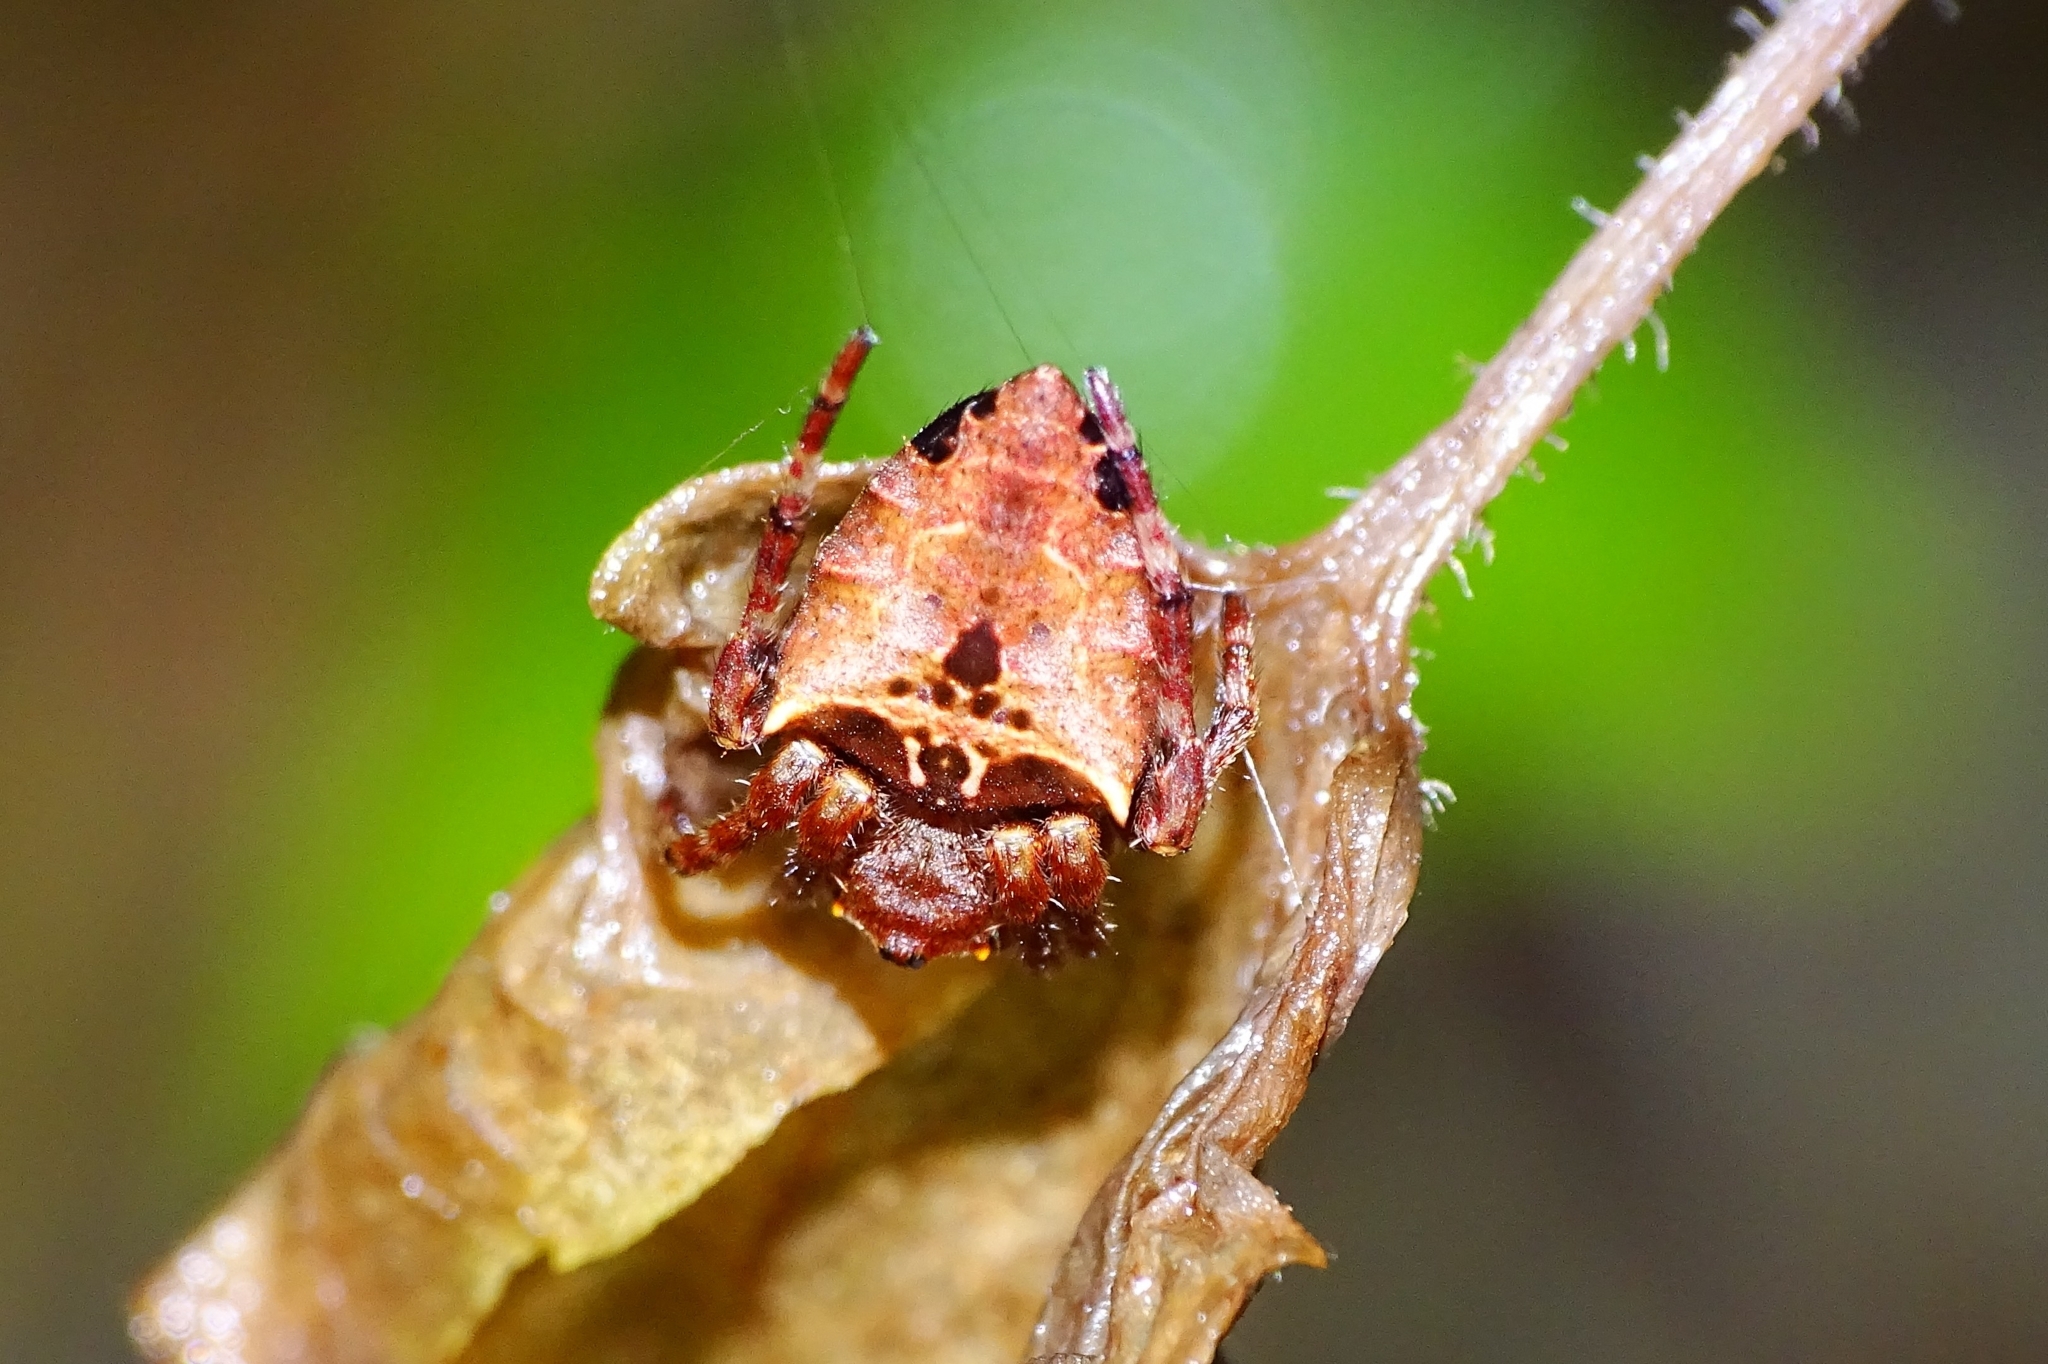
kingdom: Animalia
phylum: Arthropoda
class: Arachnida
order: Araneae
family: Araneidae
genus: Parawixia
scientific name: Parawixia dehaani
